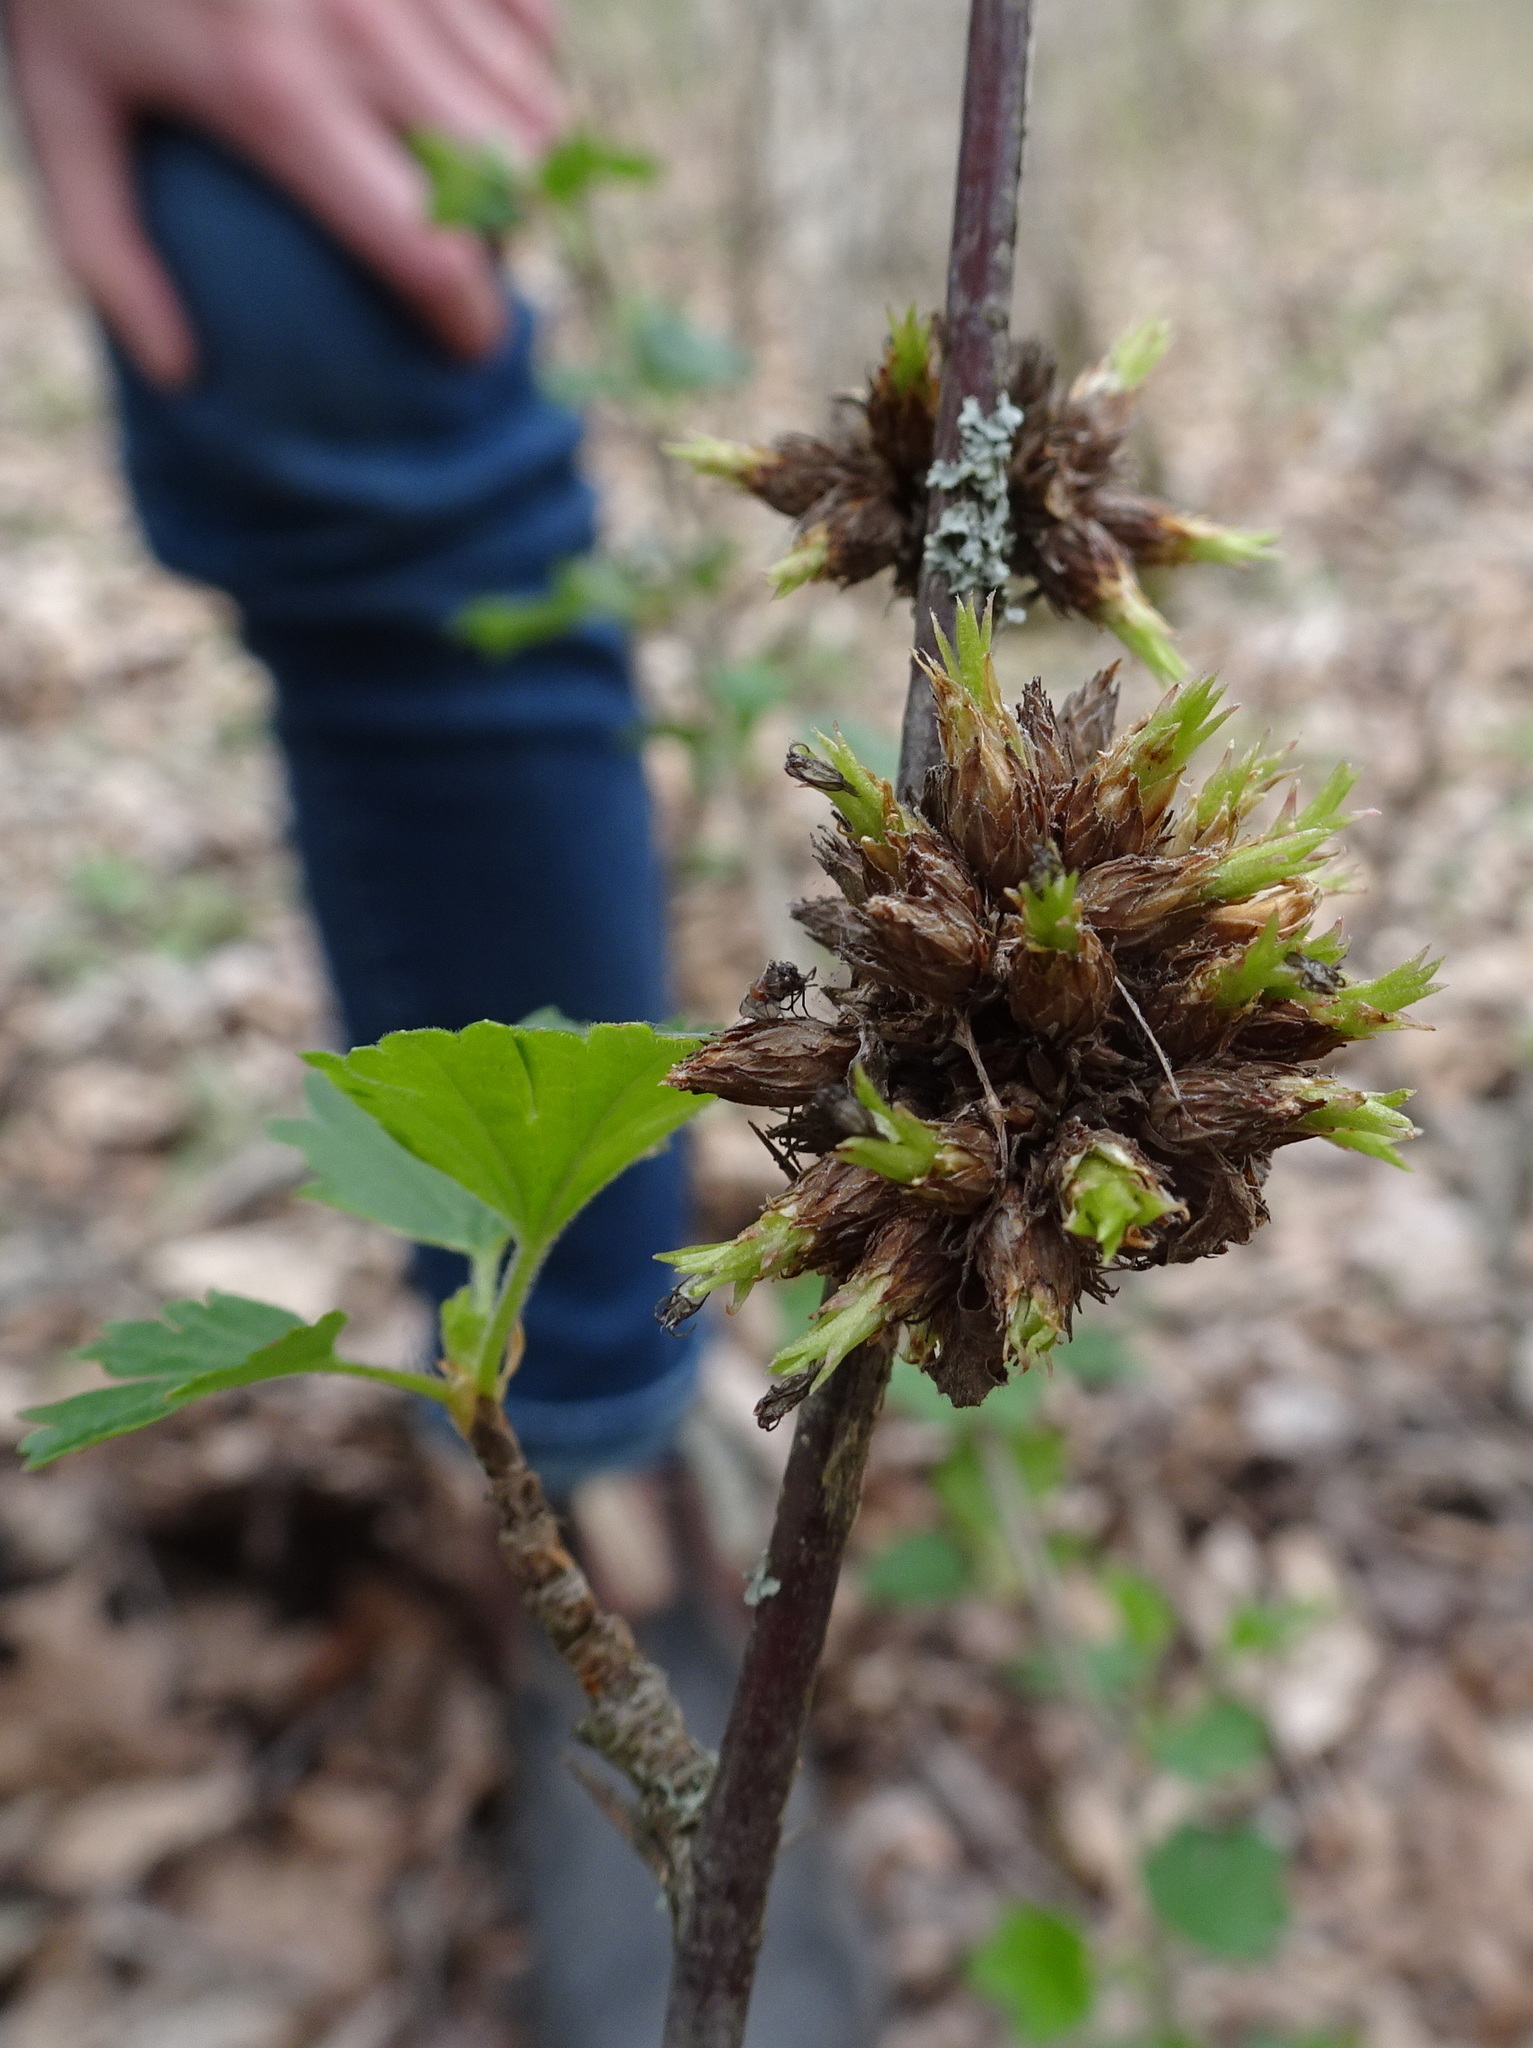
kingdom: Animalia
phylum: Arthropoda
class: Insecta
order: Diptera
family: Cecidomyiidae
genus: Rhopalomyia
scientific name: Rhopalomyia grossulariae
